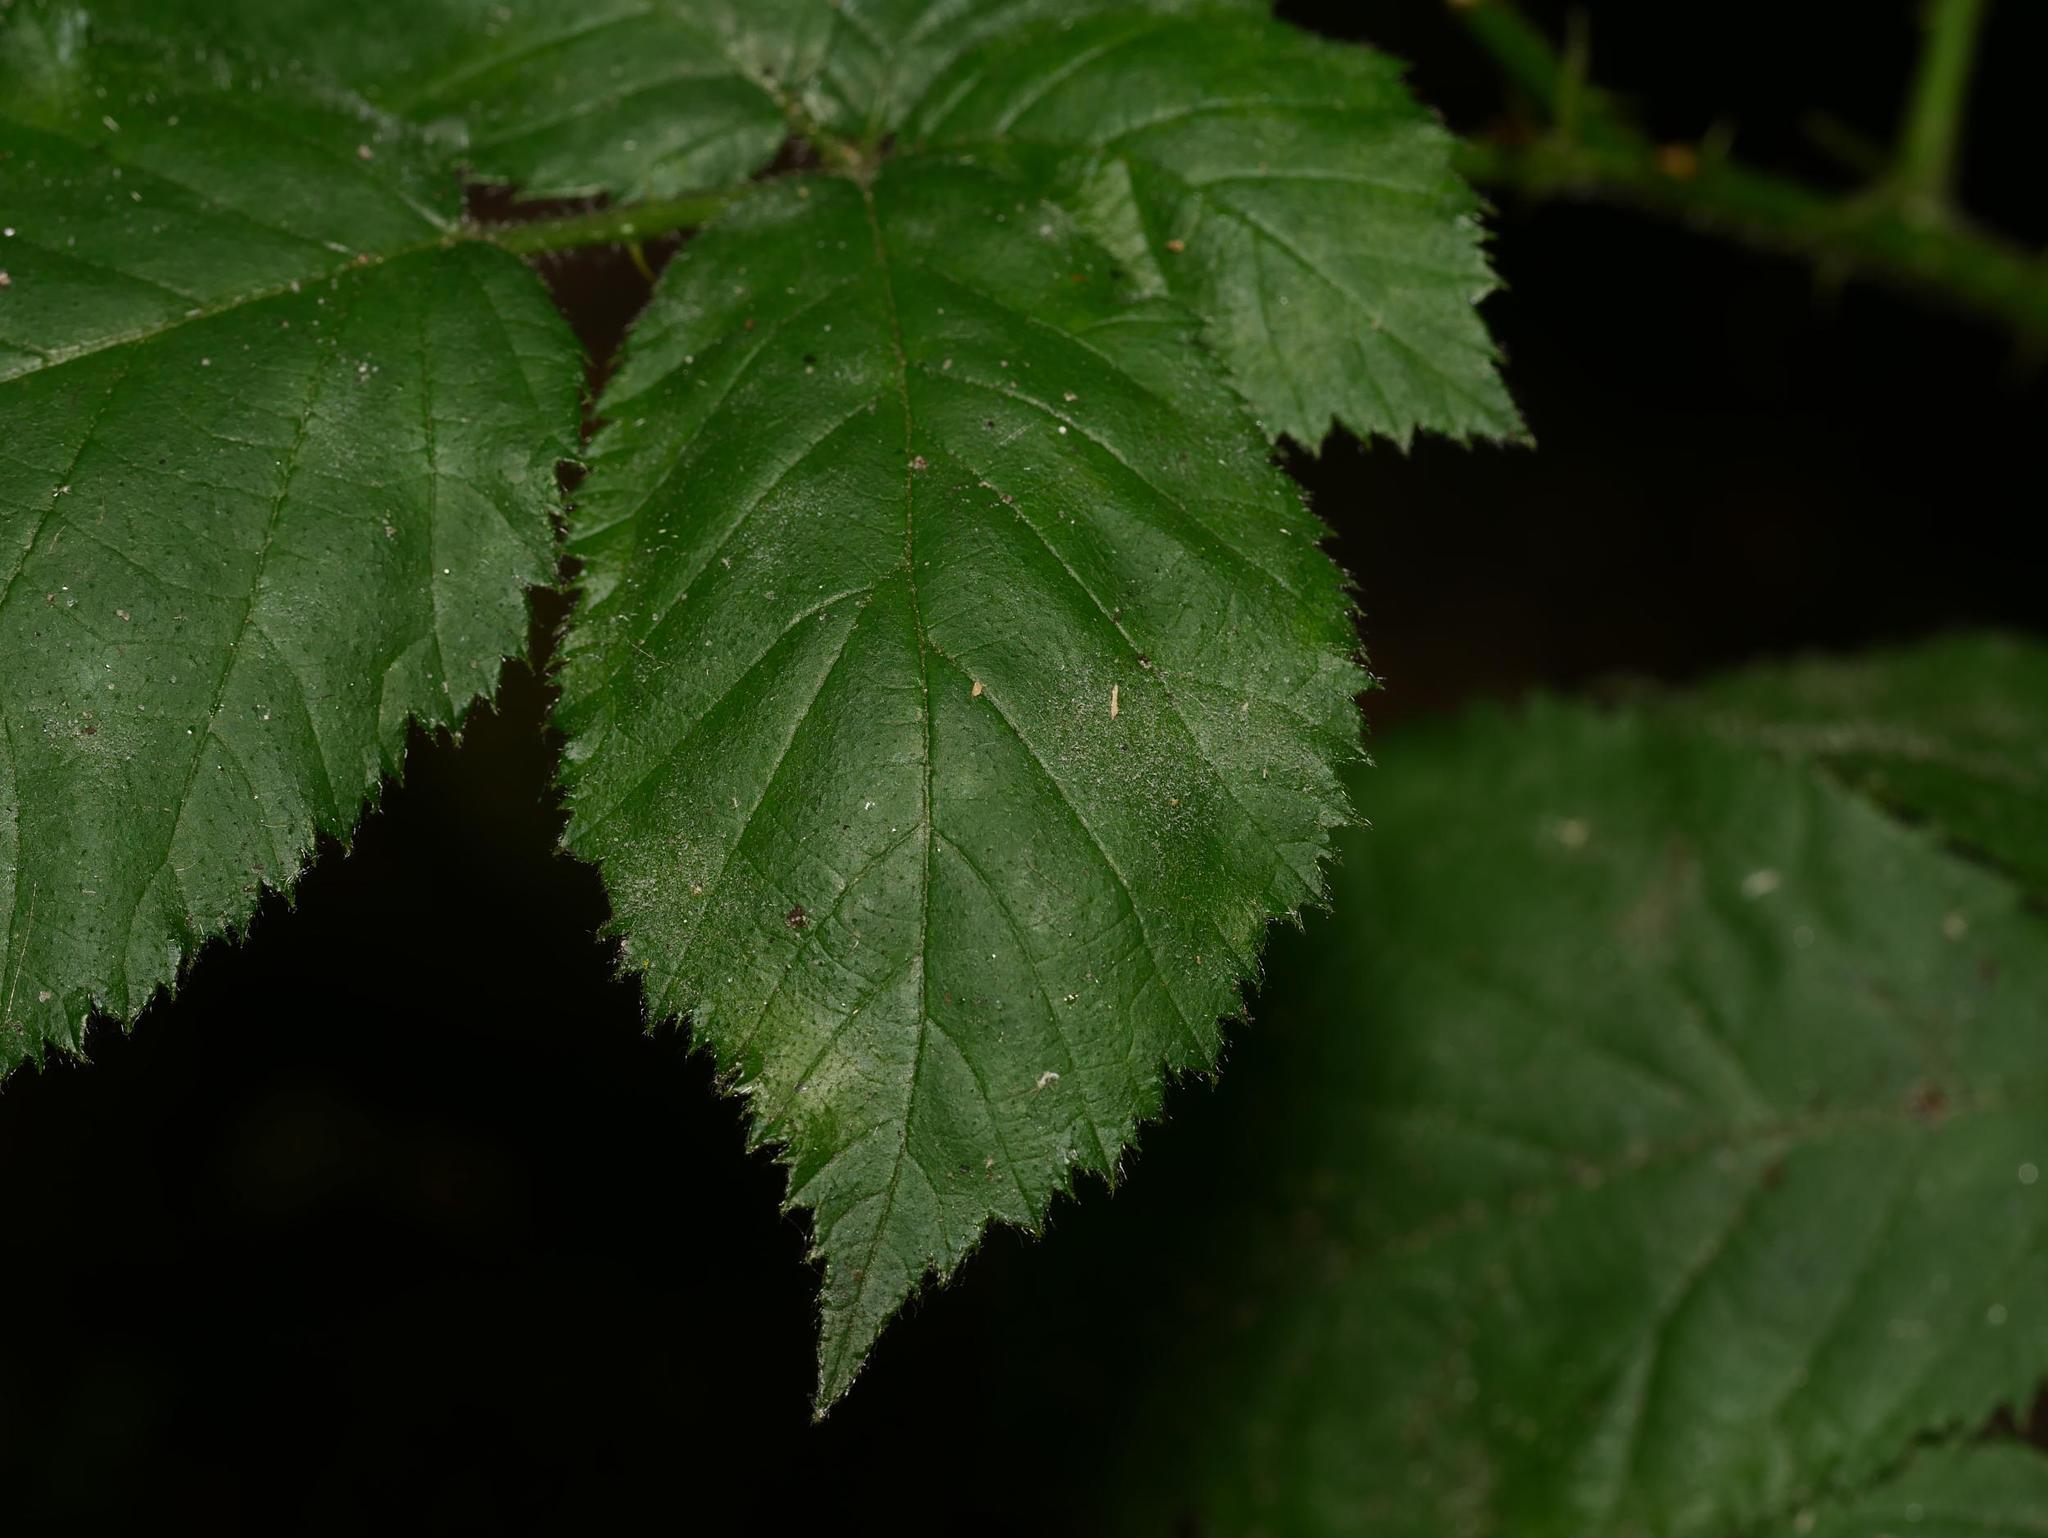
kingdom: Fungi
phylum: Ascomycota
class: Leotiomycetes
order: Helotiales
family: Erysiphaceae
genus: Podosphaera
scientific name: Podosphaera aphanis
